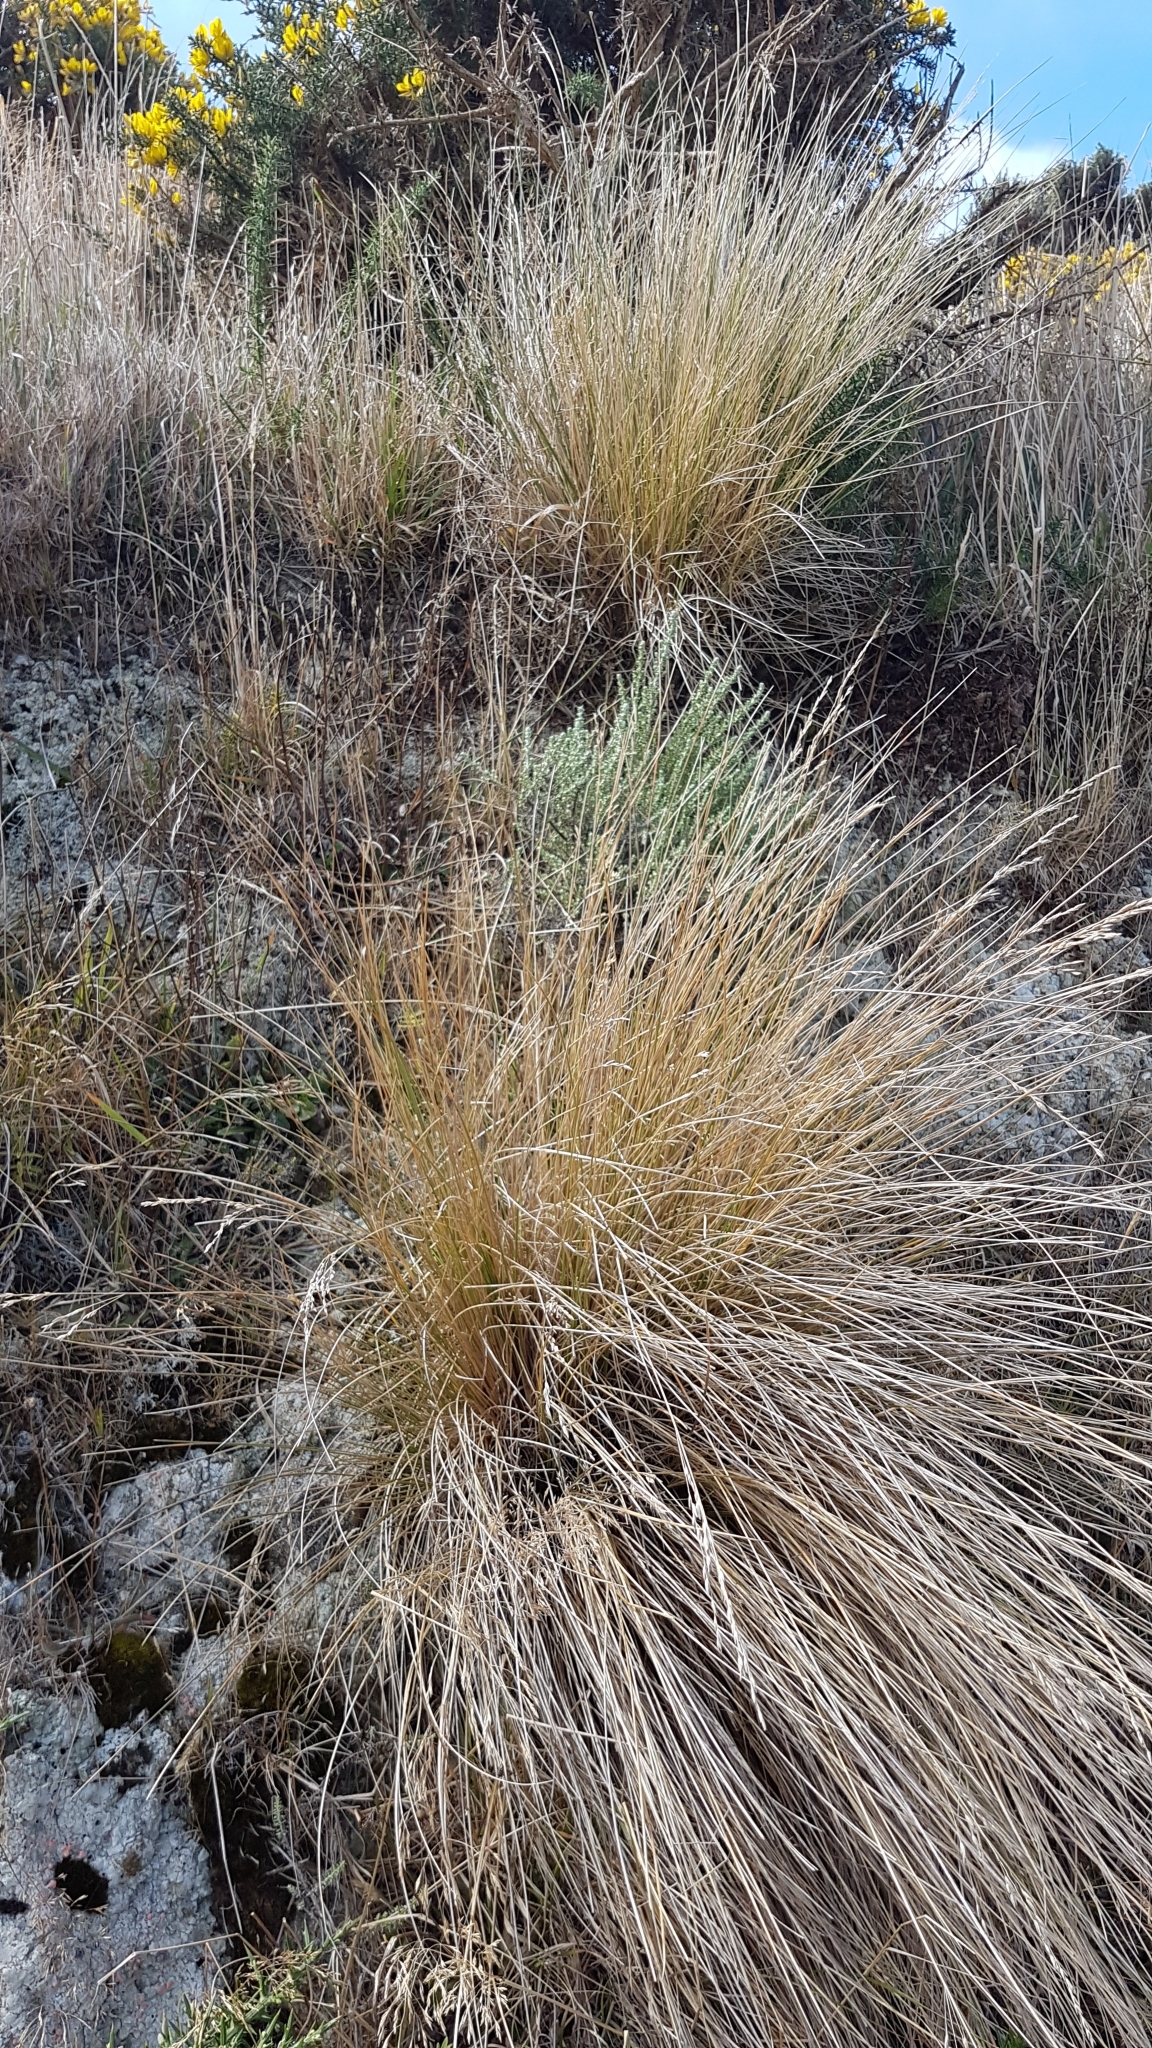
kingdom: Plantae
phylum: Tracheophyta
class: Liliopsida
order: Poales
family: Poaceae
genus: Poa
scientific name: Poa cita
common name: Silver tussock
